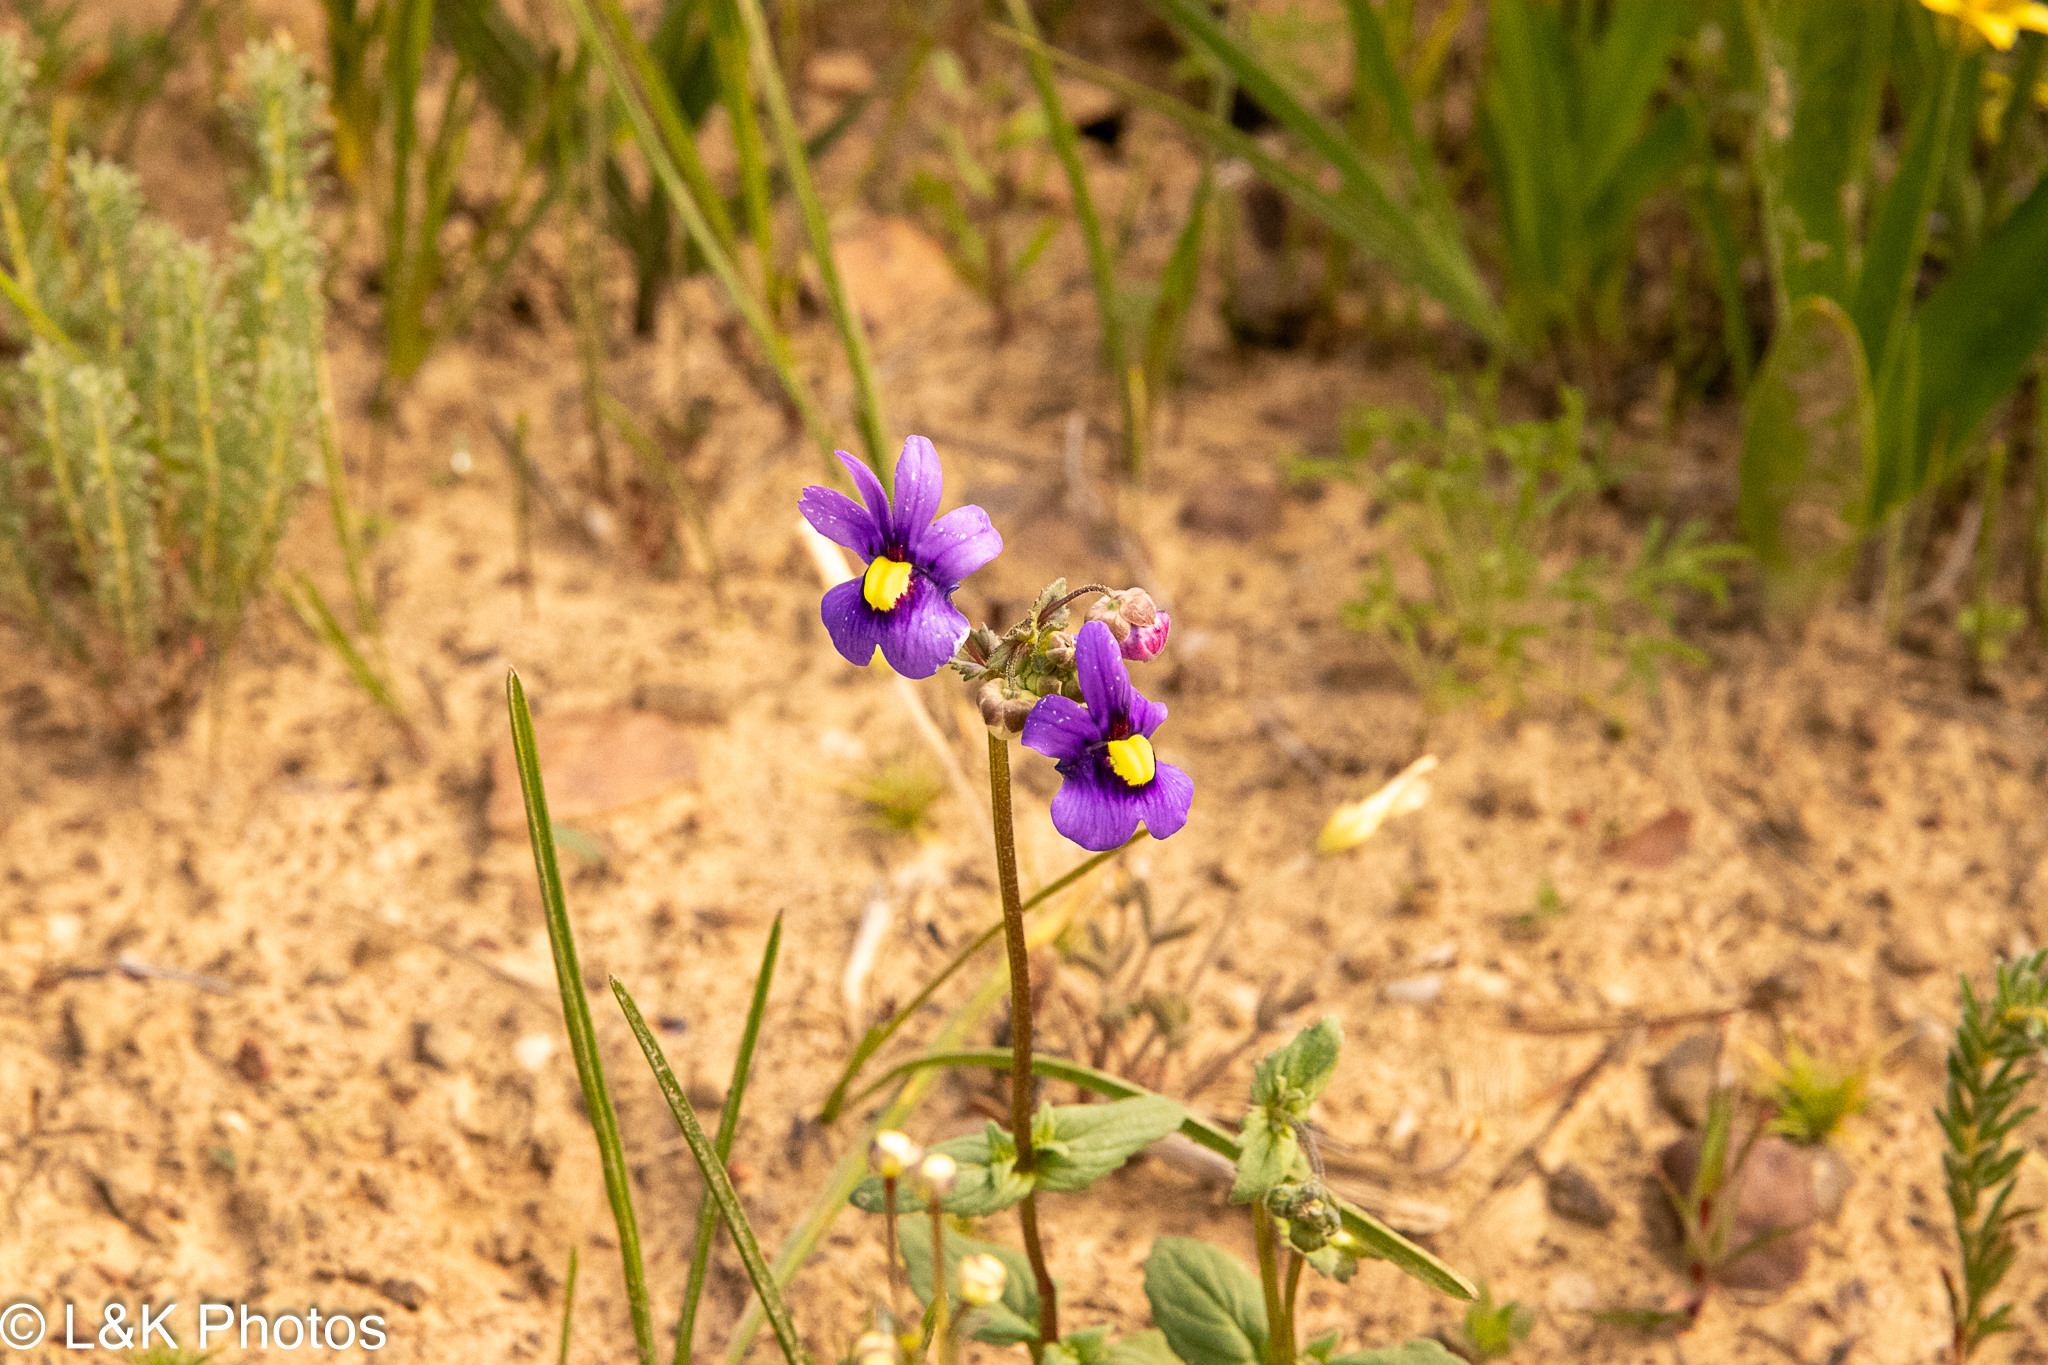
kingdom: Plantae
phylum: Tracheophyta
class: Magnoliopsida
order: Lamiales
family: Scrophulariaceae
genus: Nemesia
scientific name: Nemesia leipoldtii
